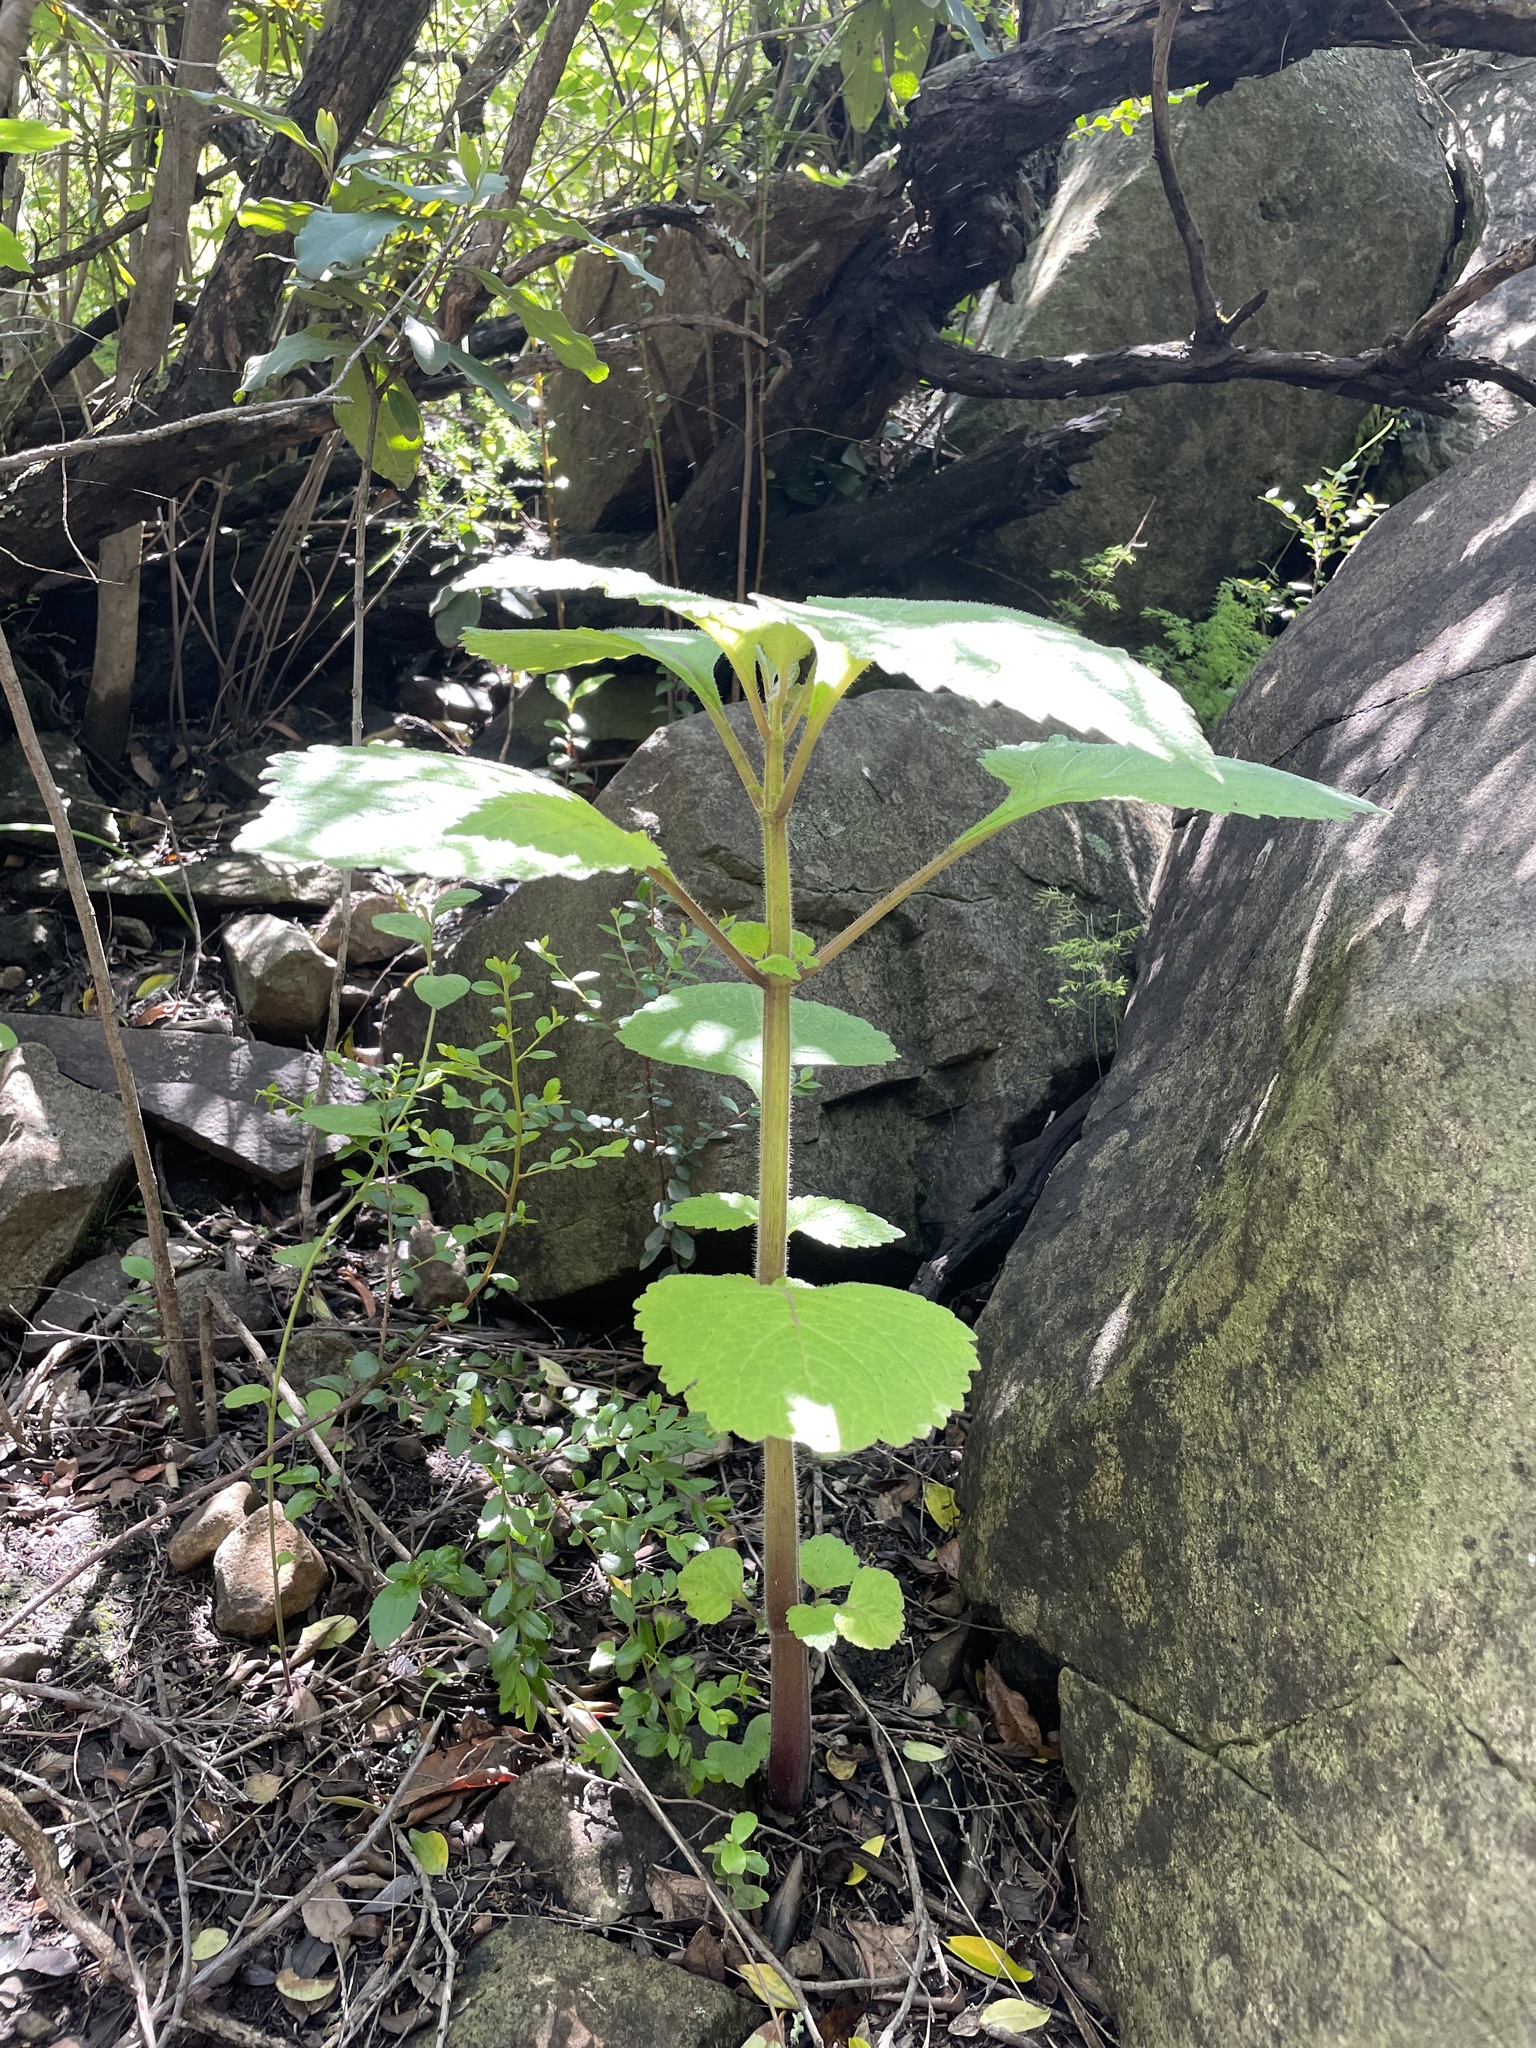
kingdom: Plantae
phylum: Tracheophyta
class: Magnoliopsida
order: Lamiales
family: Lamiaceae
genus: Plectranthus
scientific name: Plectranthus grallatus
